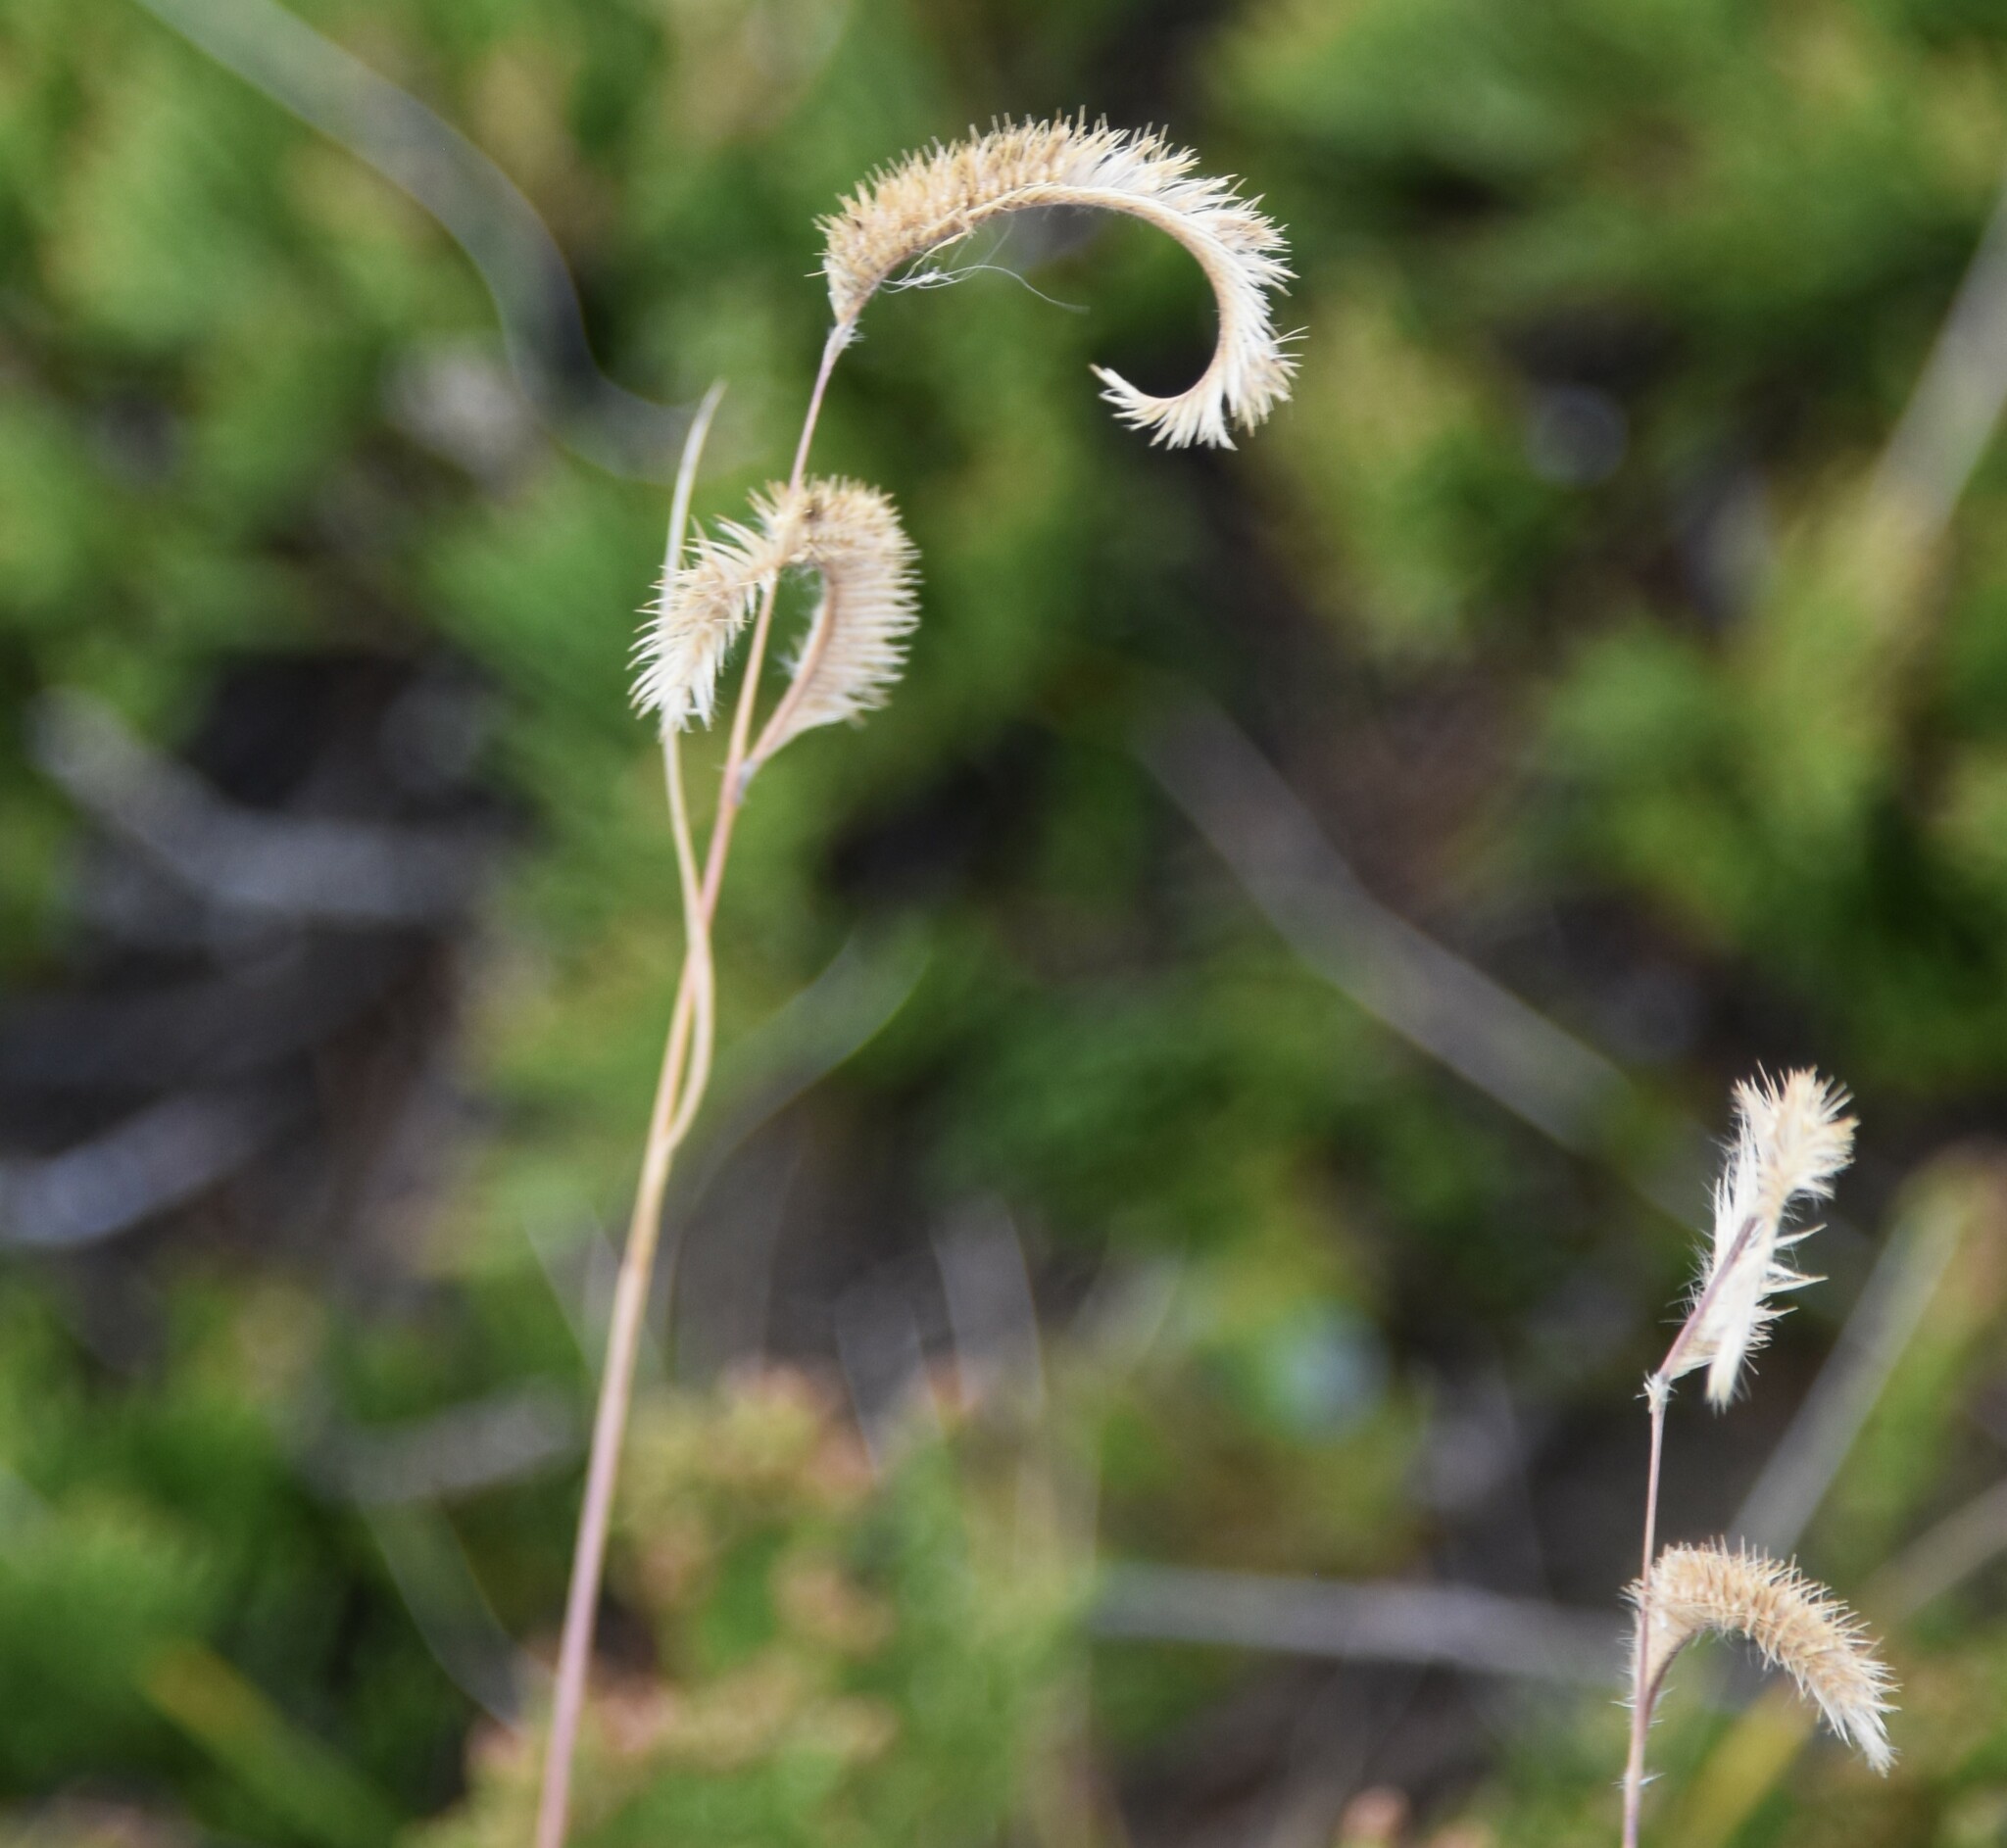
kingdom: Plantae
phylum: Tracheophyta
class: Liliopsida
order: Poales
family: Poaceae
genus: Bouteloua
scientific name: Bouteloua gracilis
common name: Blue grama
